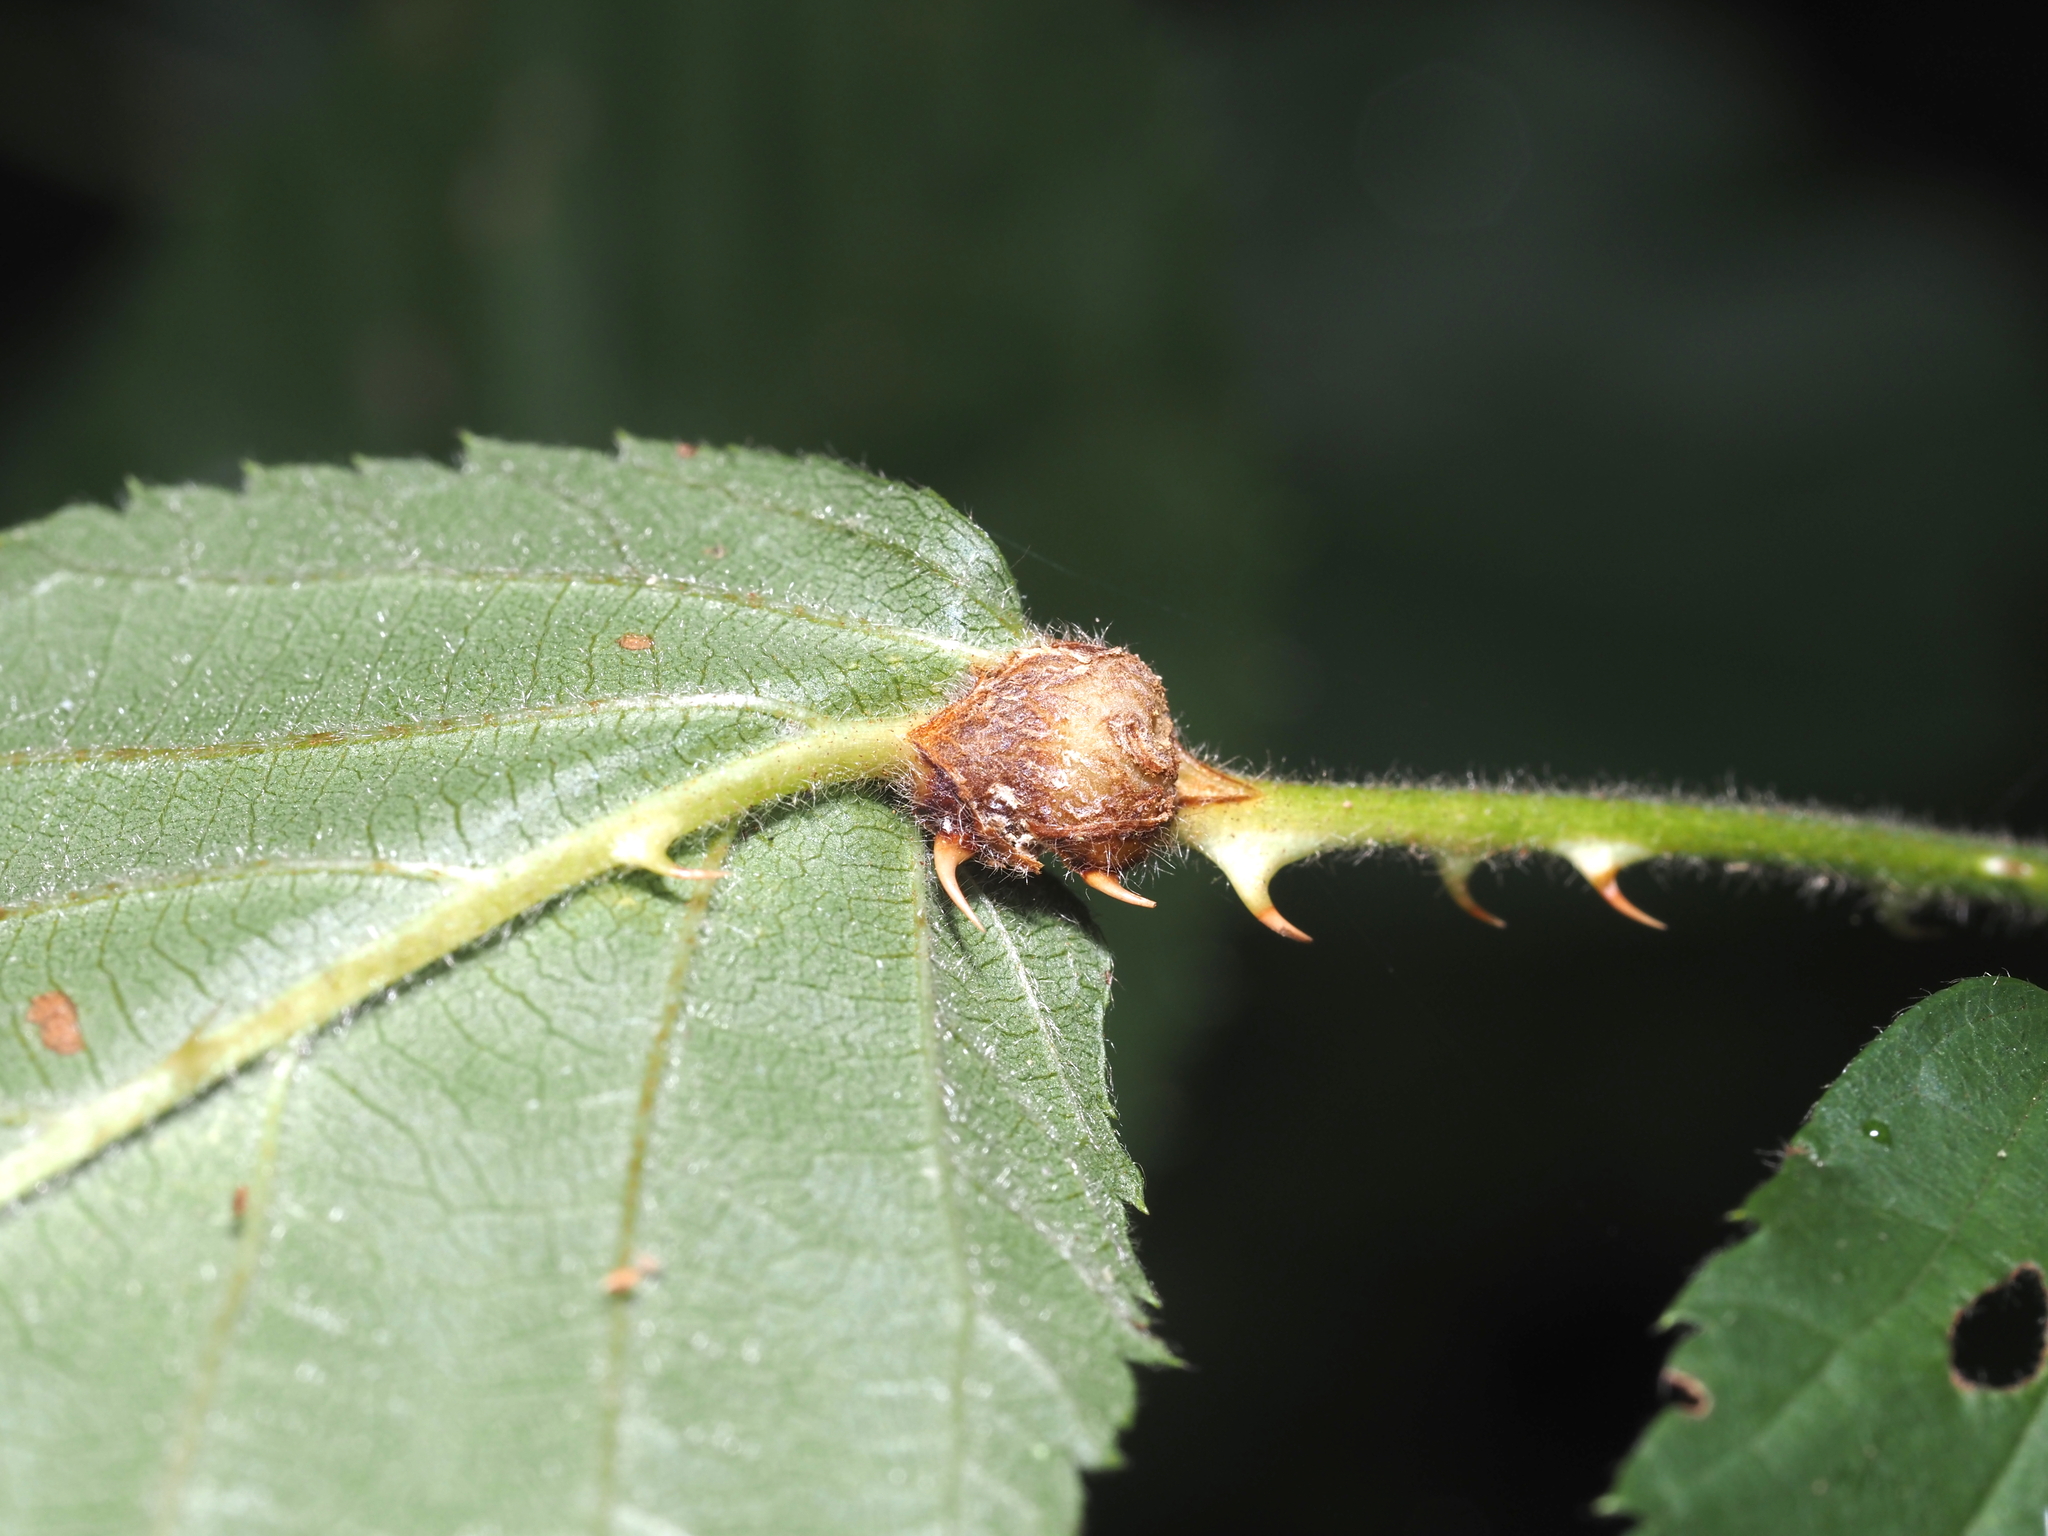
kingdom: Animalia
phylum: Arthropoda
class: Insecta
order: Diptera
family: Cecidomyiidae
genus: Neolasioptera
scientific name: Neolasioptera farinosa
